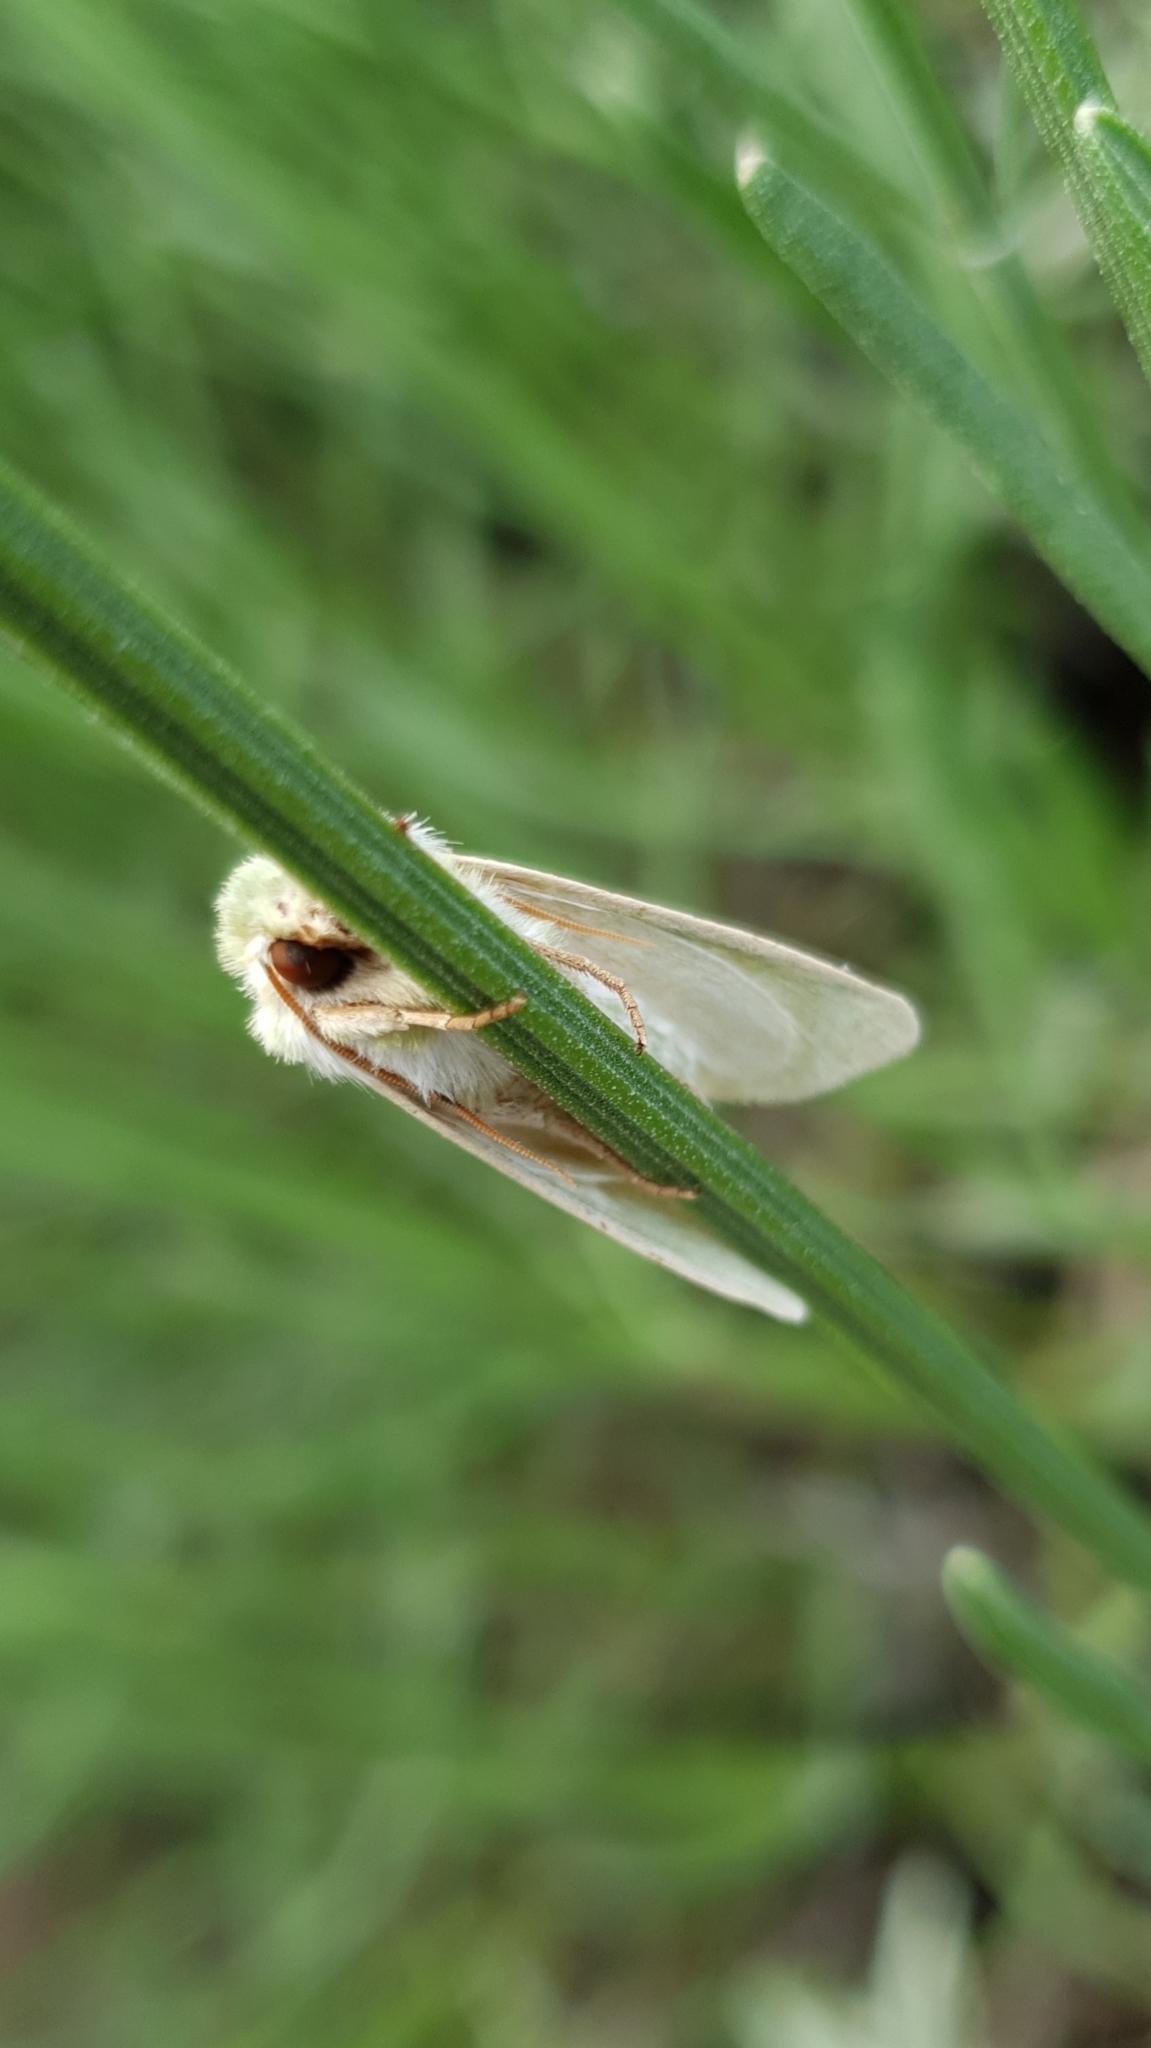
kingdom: Animalia
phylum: Arthropoda
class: Insecta
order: Lepidoptera
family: Noctuidae
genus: Calamia
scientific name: Calamia tridens
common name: Burren green
